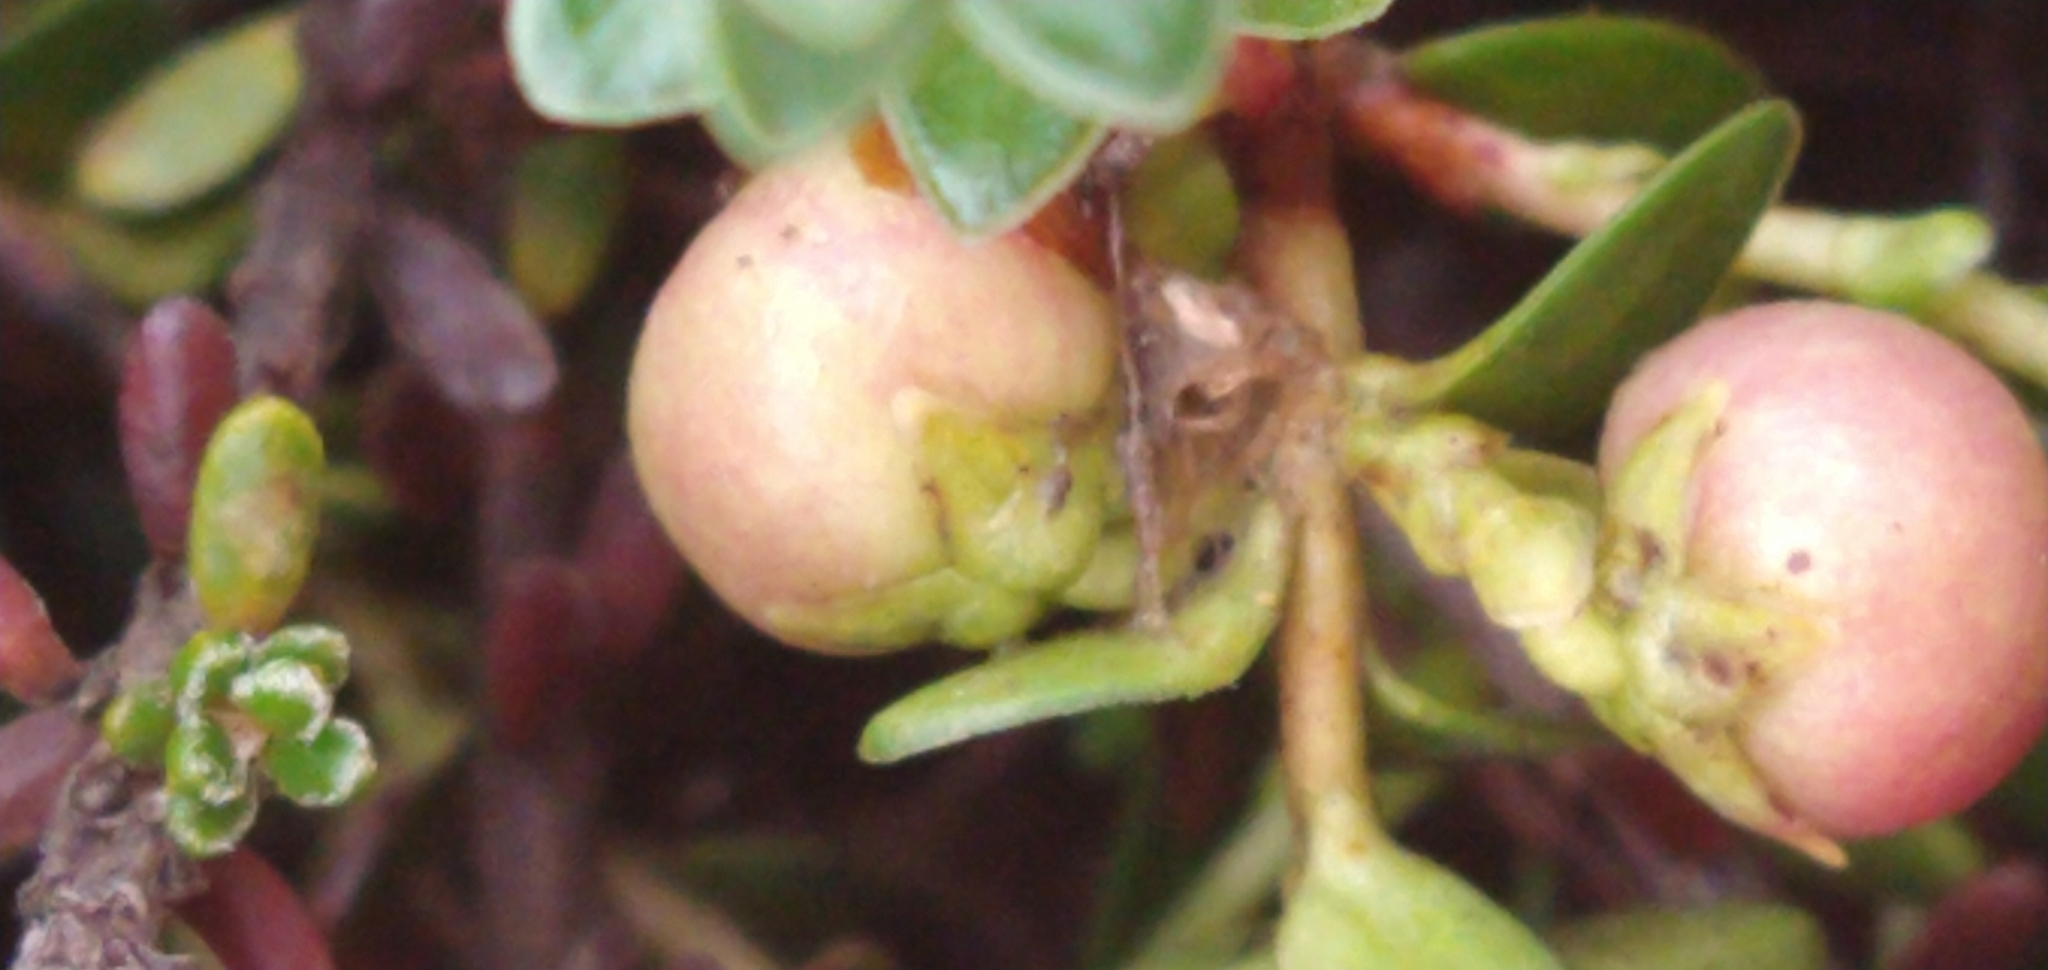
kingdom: Plantae
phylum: Tracheophyta
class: Magnoliopsida
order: Ericales
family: Ericaceae
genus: Gaultheria
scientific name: Gaultheria pumila
